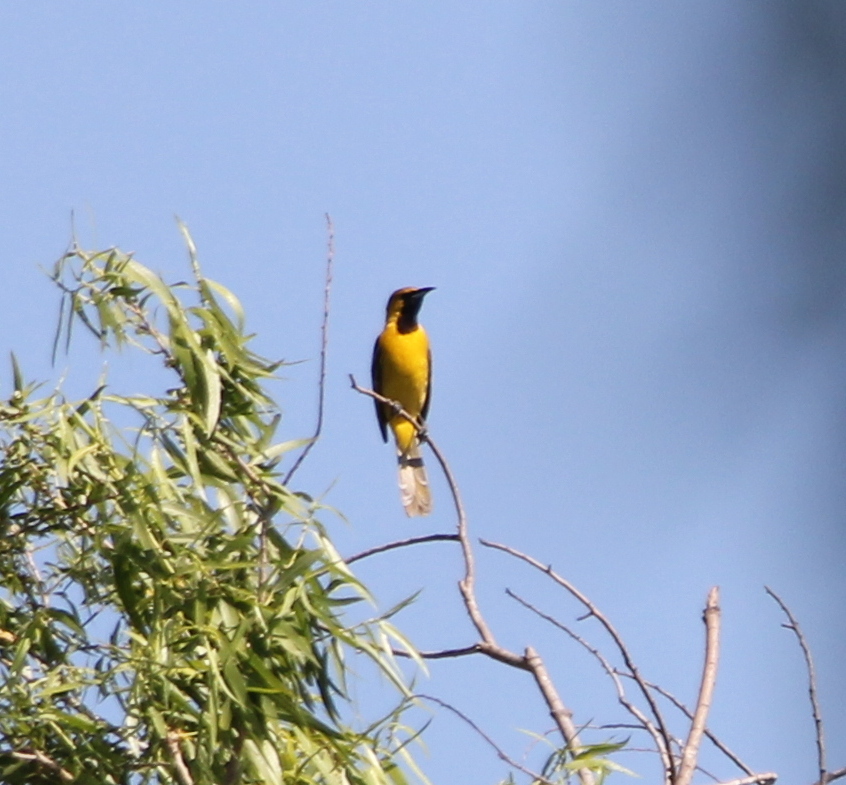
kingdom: Animalia
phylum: Chordata
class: Aves
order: Passeriformes
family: Icteridae
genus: Icterus
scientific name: Icterus cucullatus
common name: Hooded oriole
